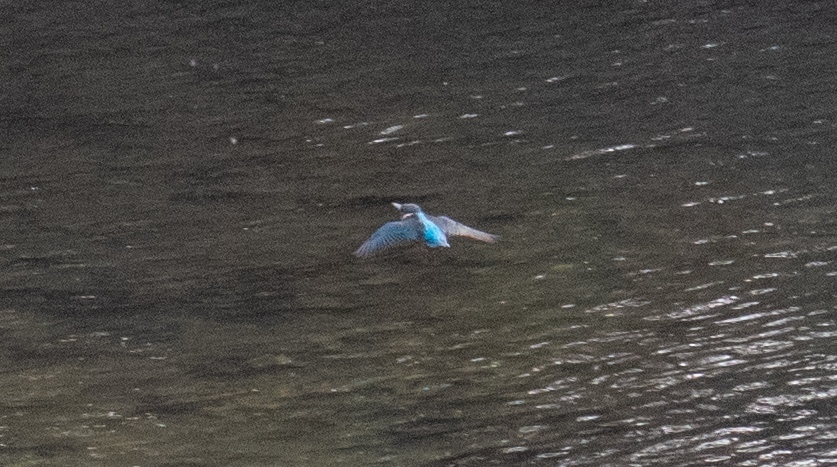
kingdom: Animalia
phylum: Chordata
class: Aves
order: Coraciiformes
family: Alcedinidae
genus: Alcedo
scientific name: Alcedo atthis
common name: Common kingfisher
